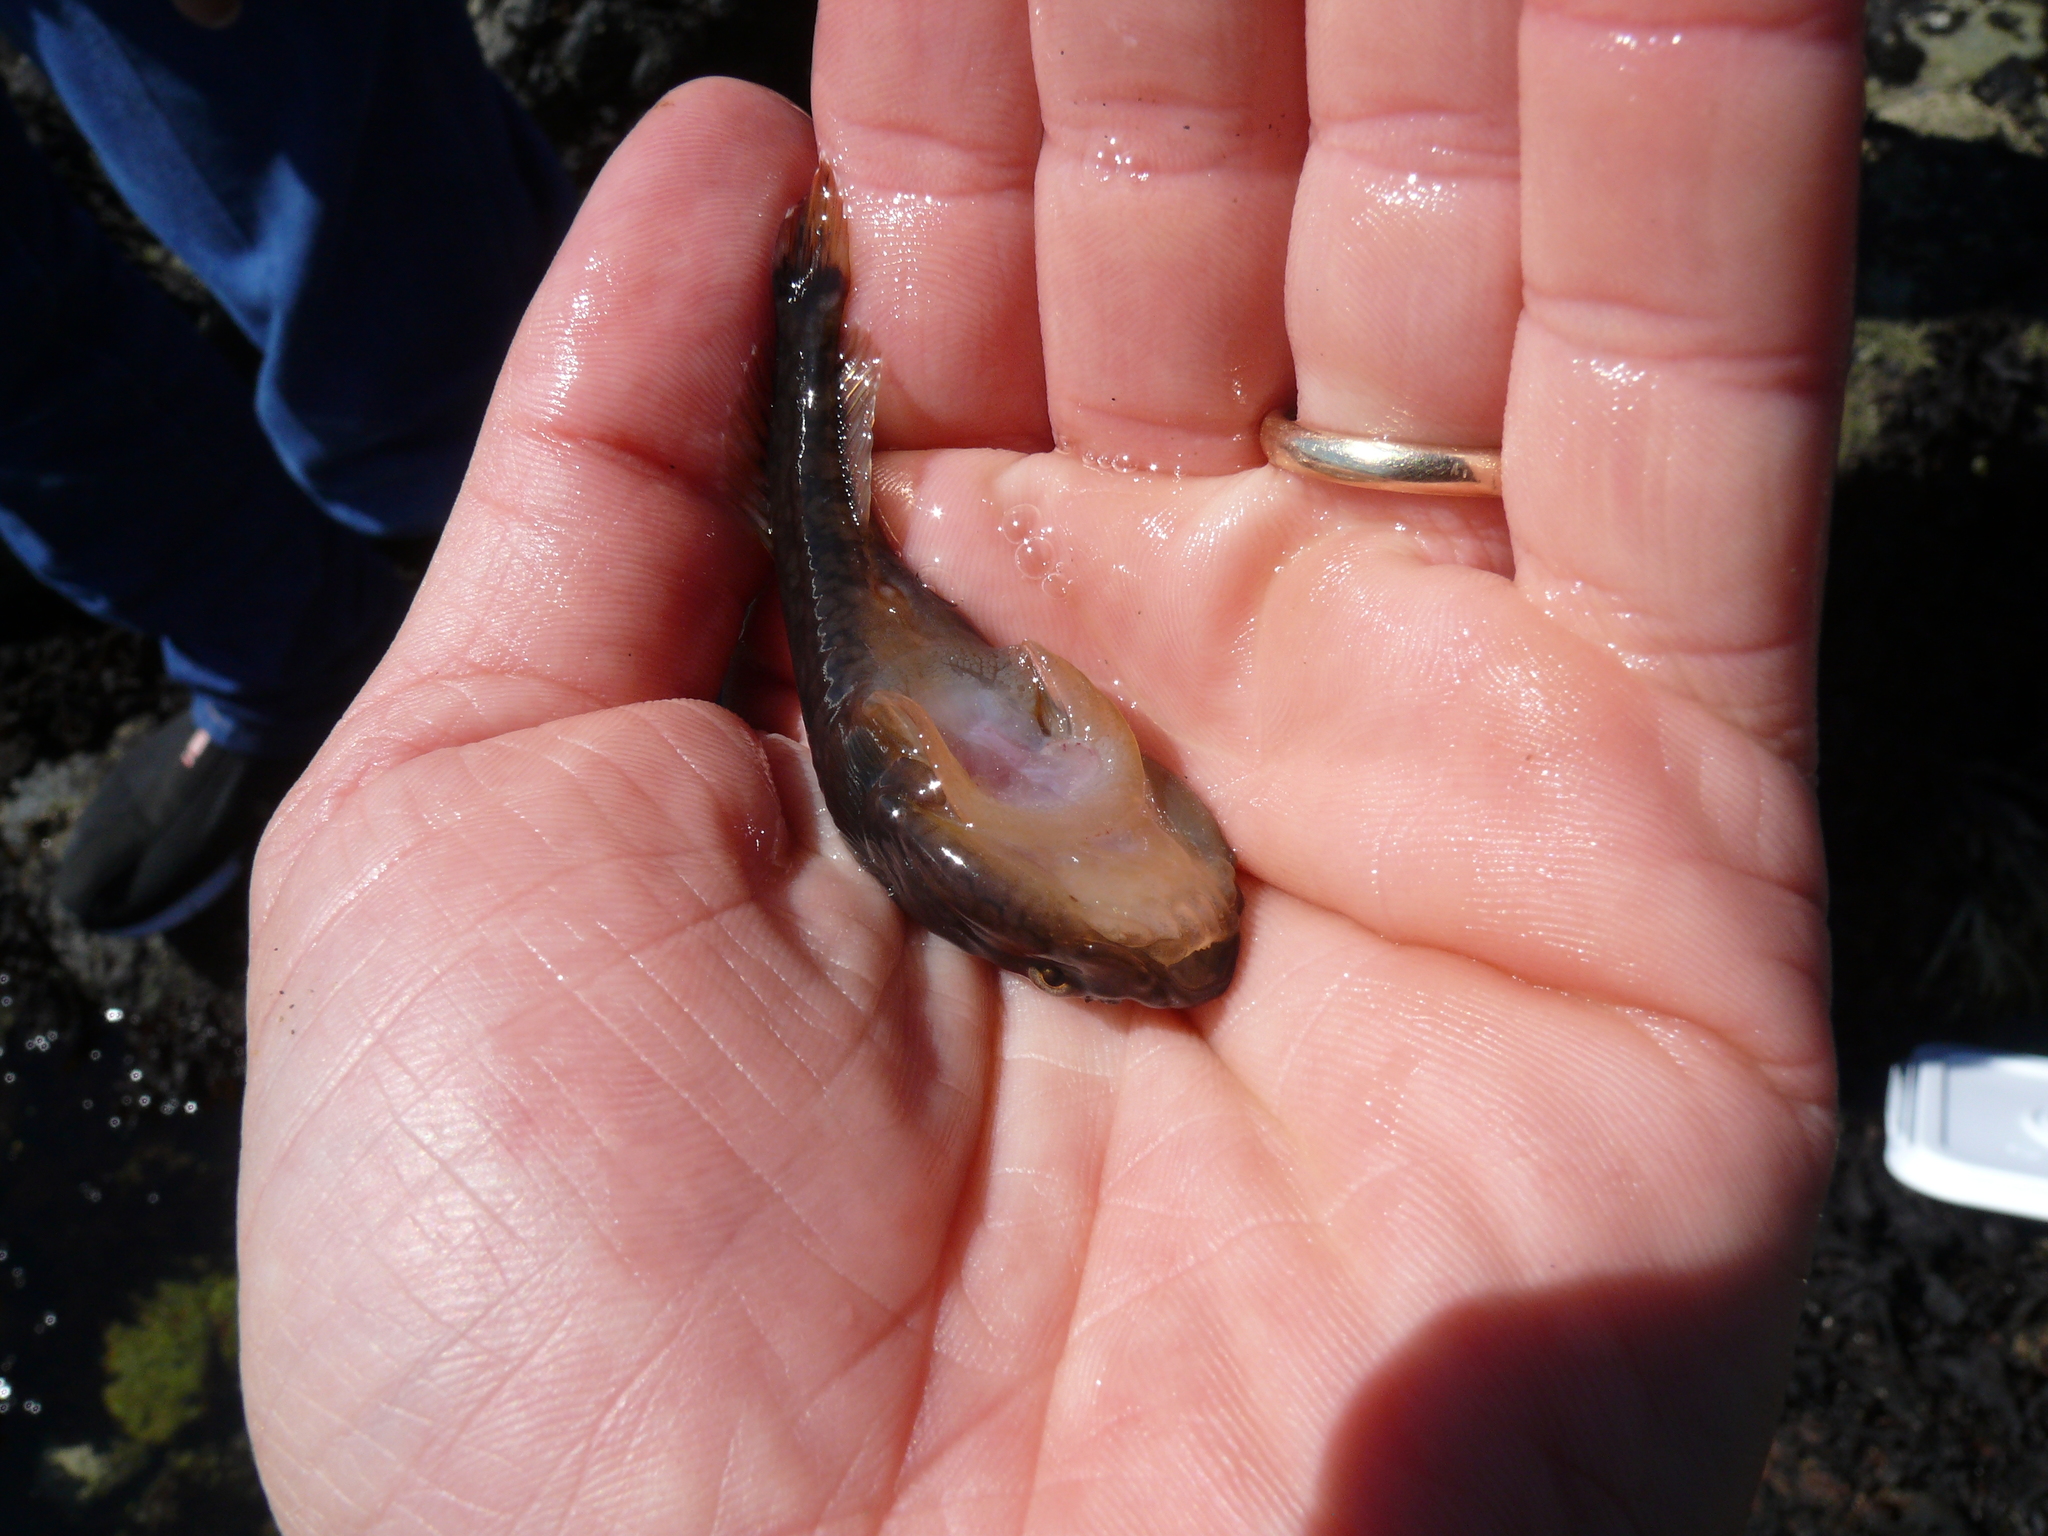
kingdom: Animalia
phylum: Chordata
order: Gobiesociformes
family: Gobiesocidae
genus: Gobiesox
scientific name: Gobiesox maeandricus
